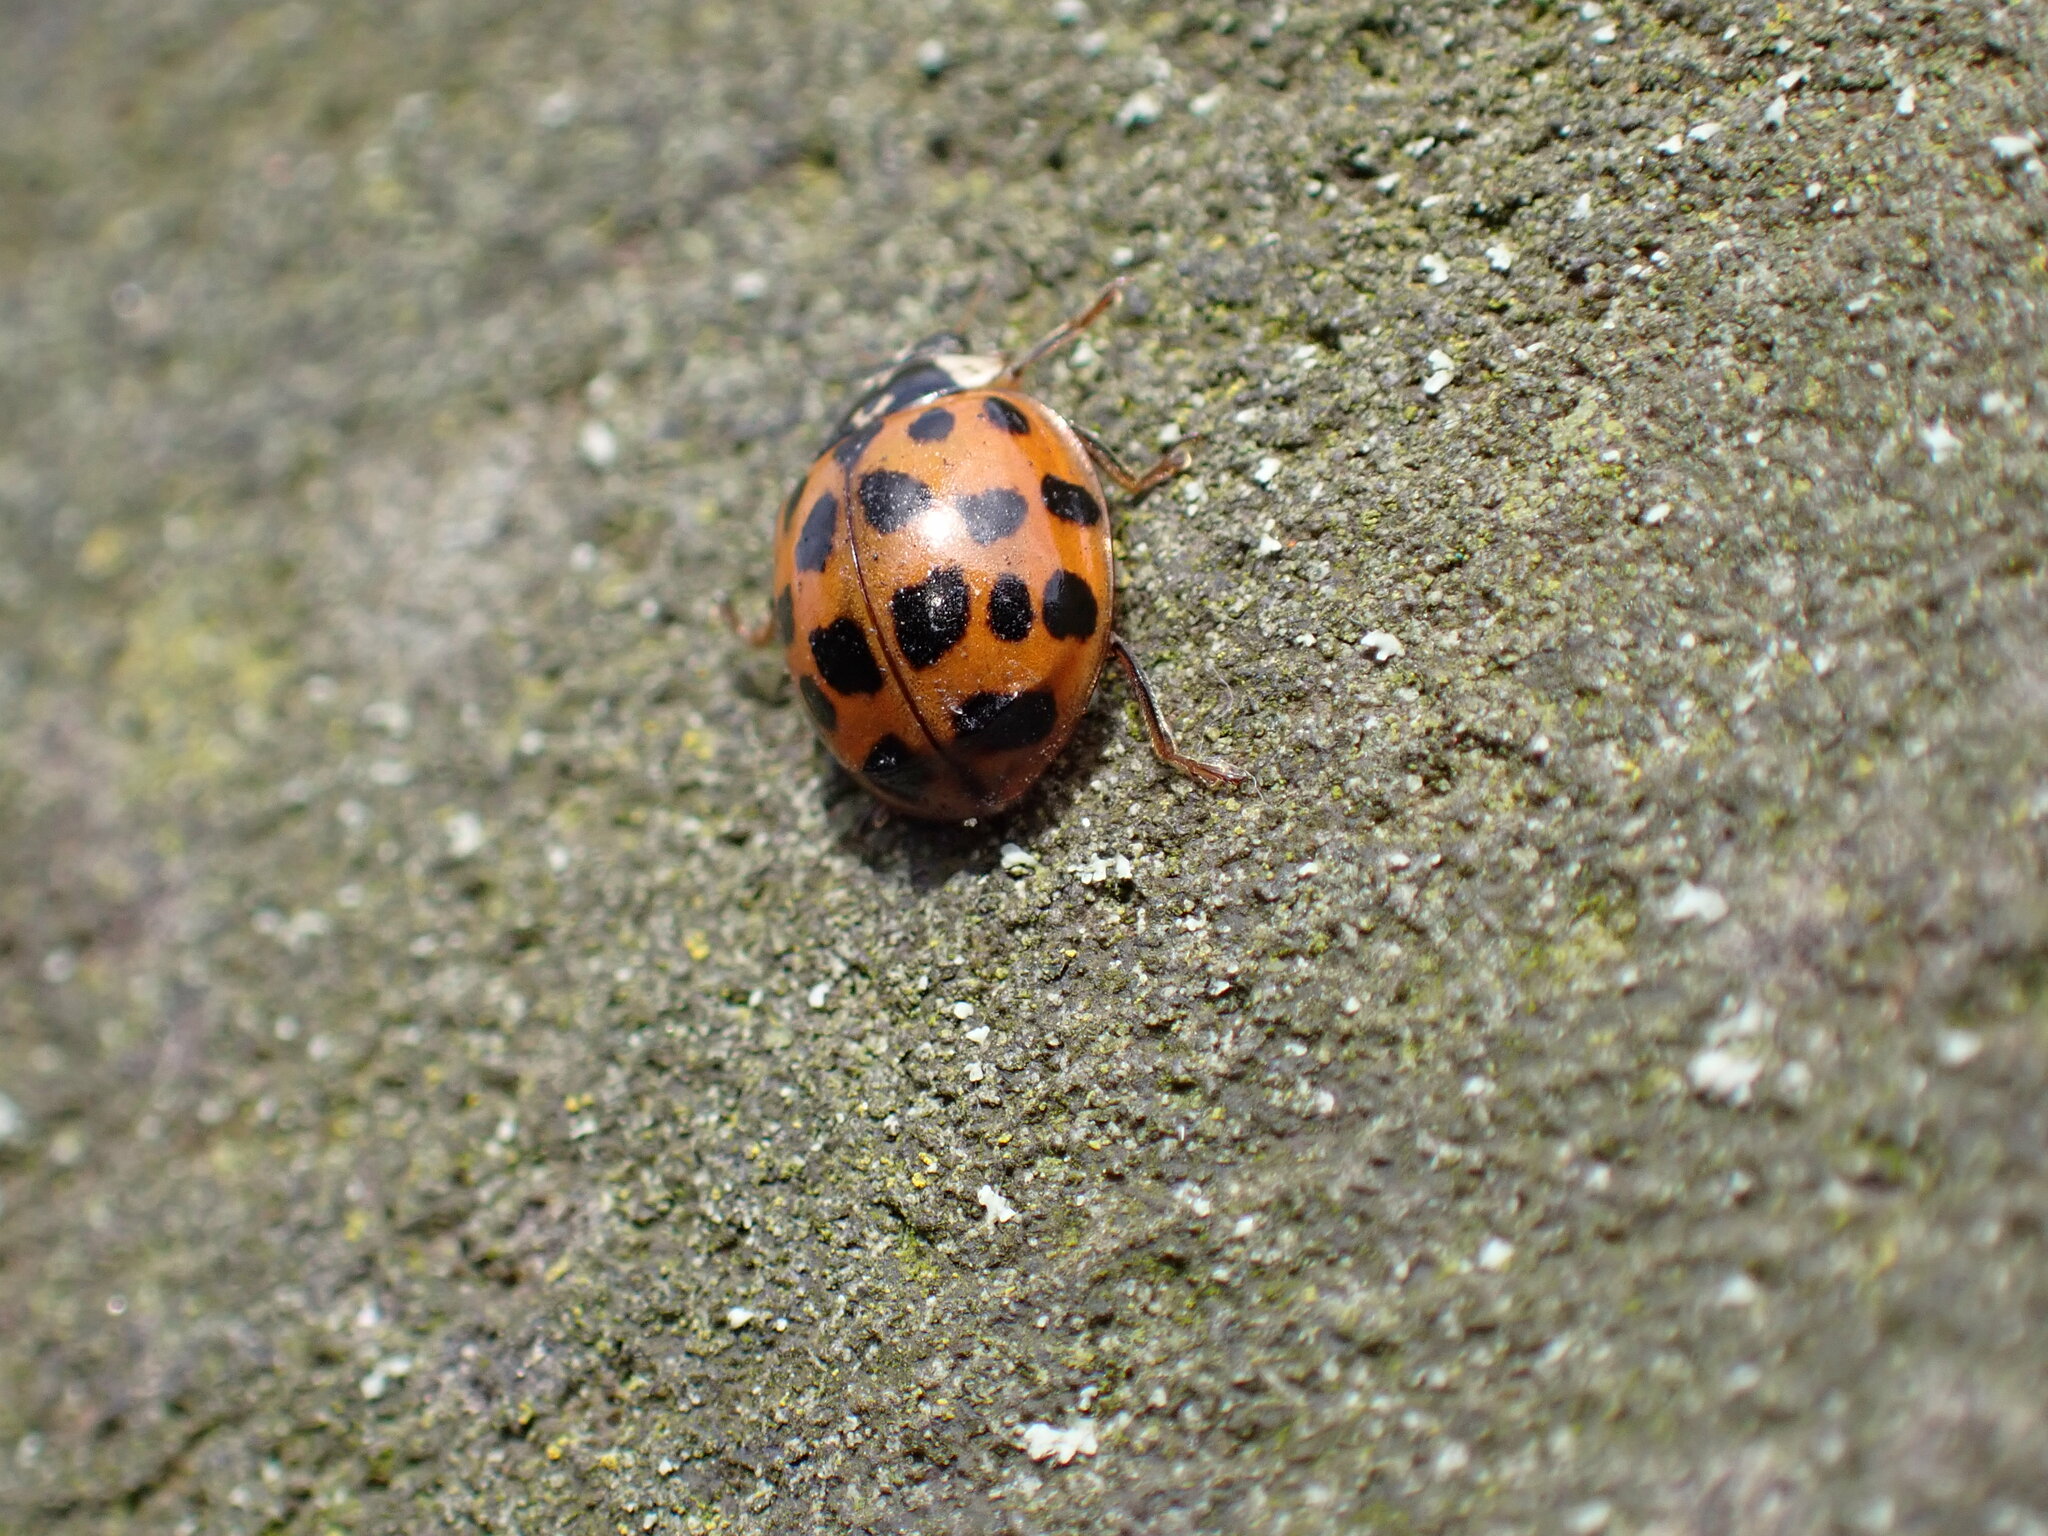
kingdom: Animalia
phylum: Arthropoda
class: Insecta
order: Coleoptera
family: Coccinellidae
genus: Harmonia
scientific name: Harmonia axyridis
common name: Harlequin ladybird
